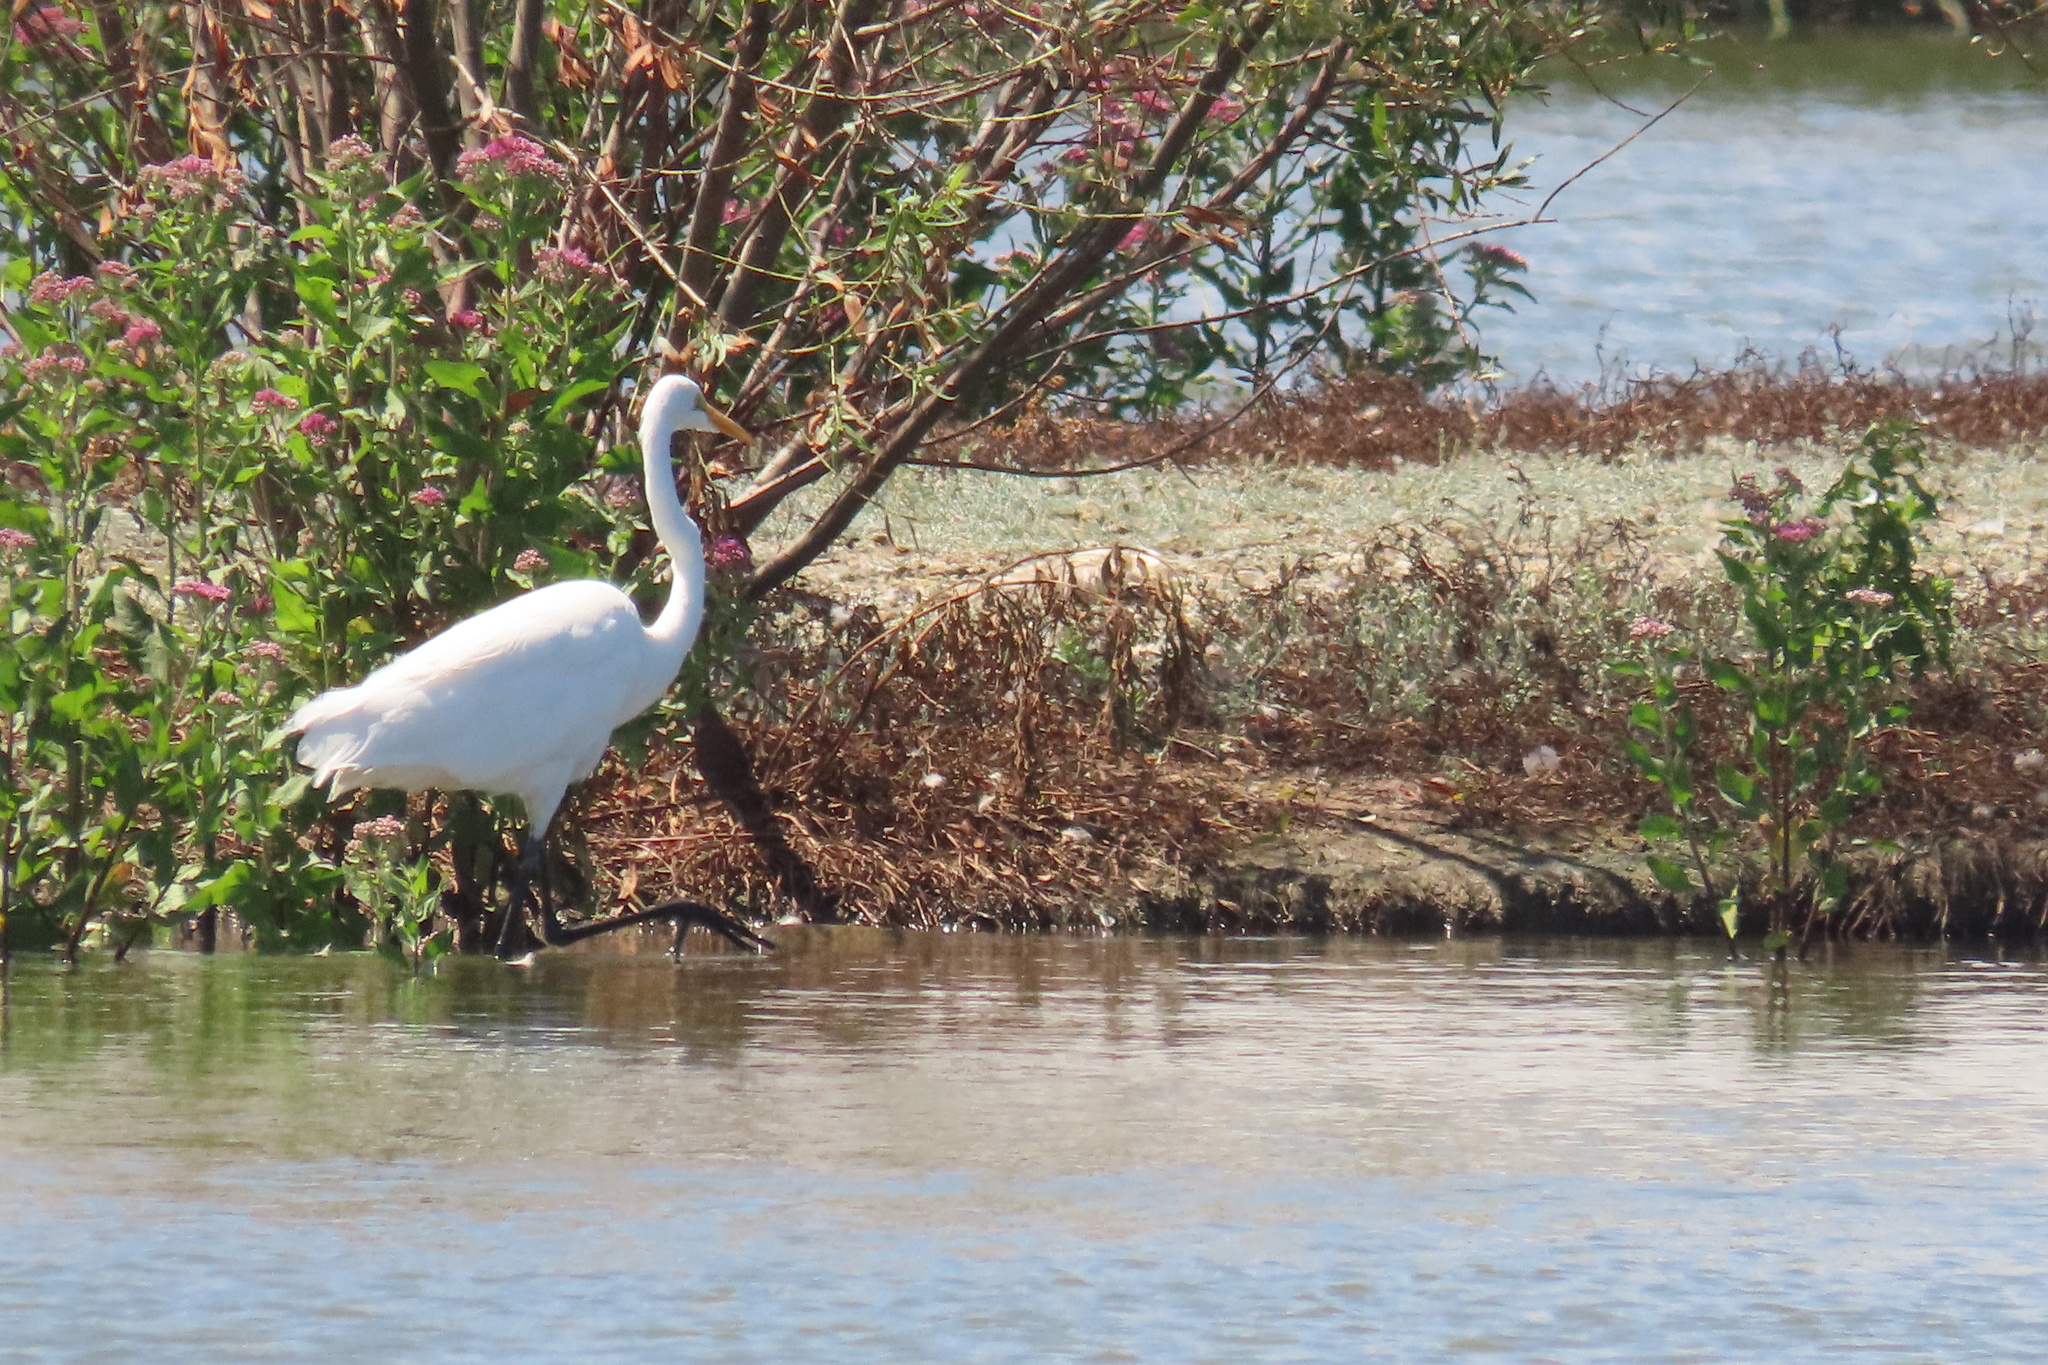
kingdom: Animalia
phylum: Chordata
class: Aves
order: Pelecaniformes
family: Ardeidae
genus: Ardea
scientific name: Ardea alba
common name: Great egret
